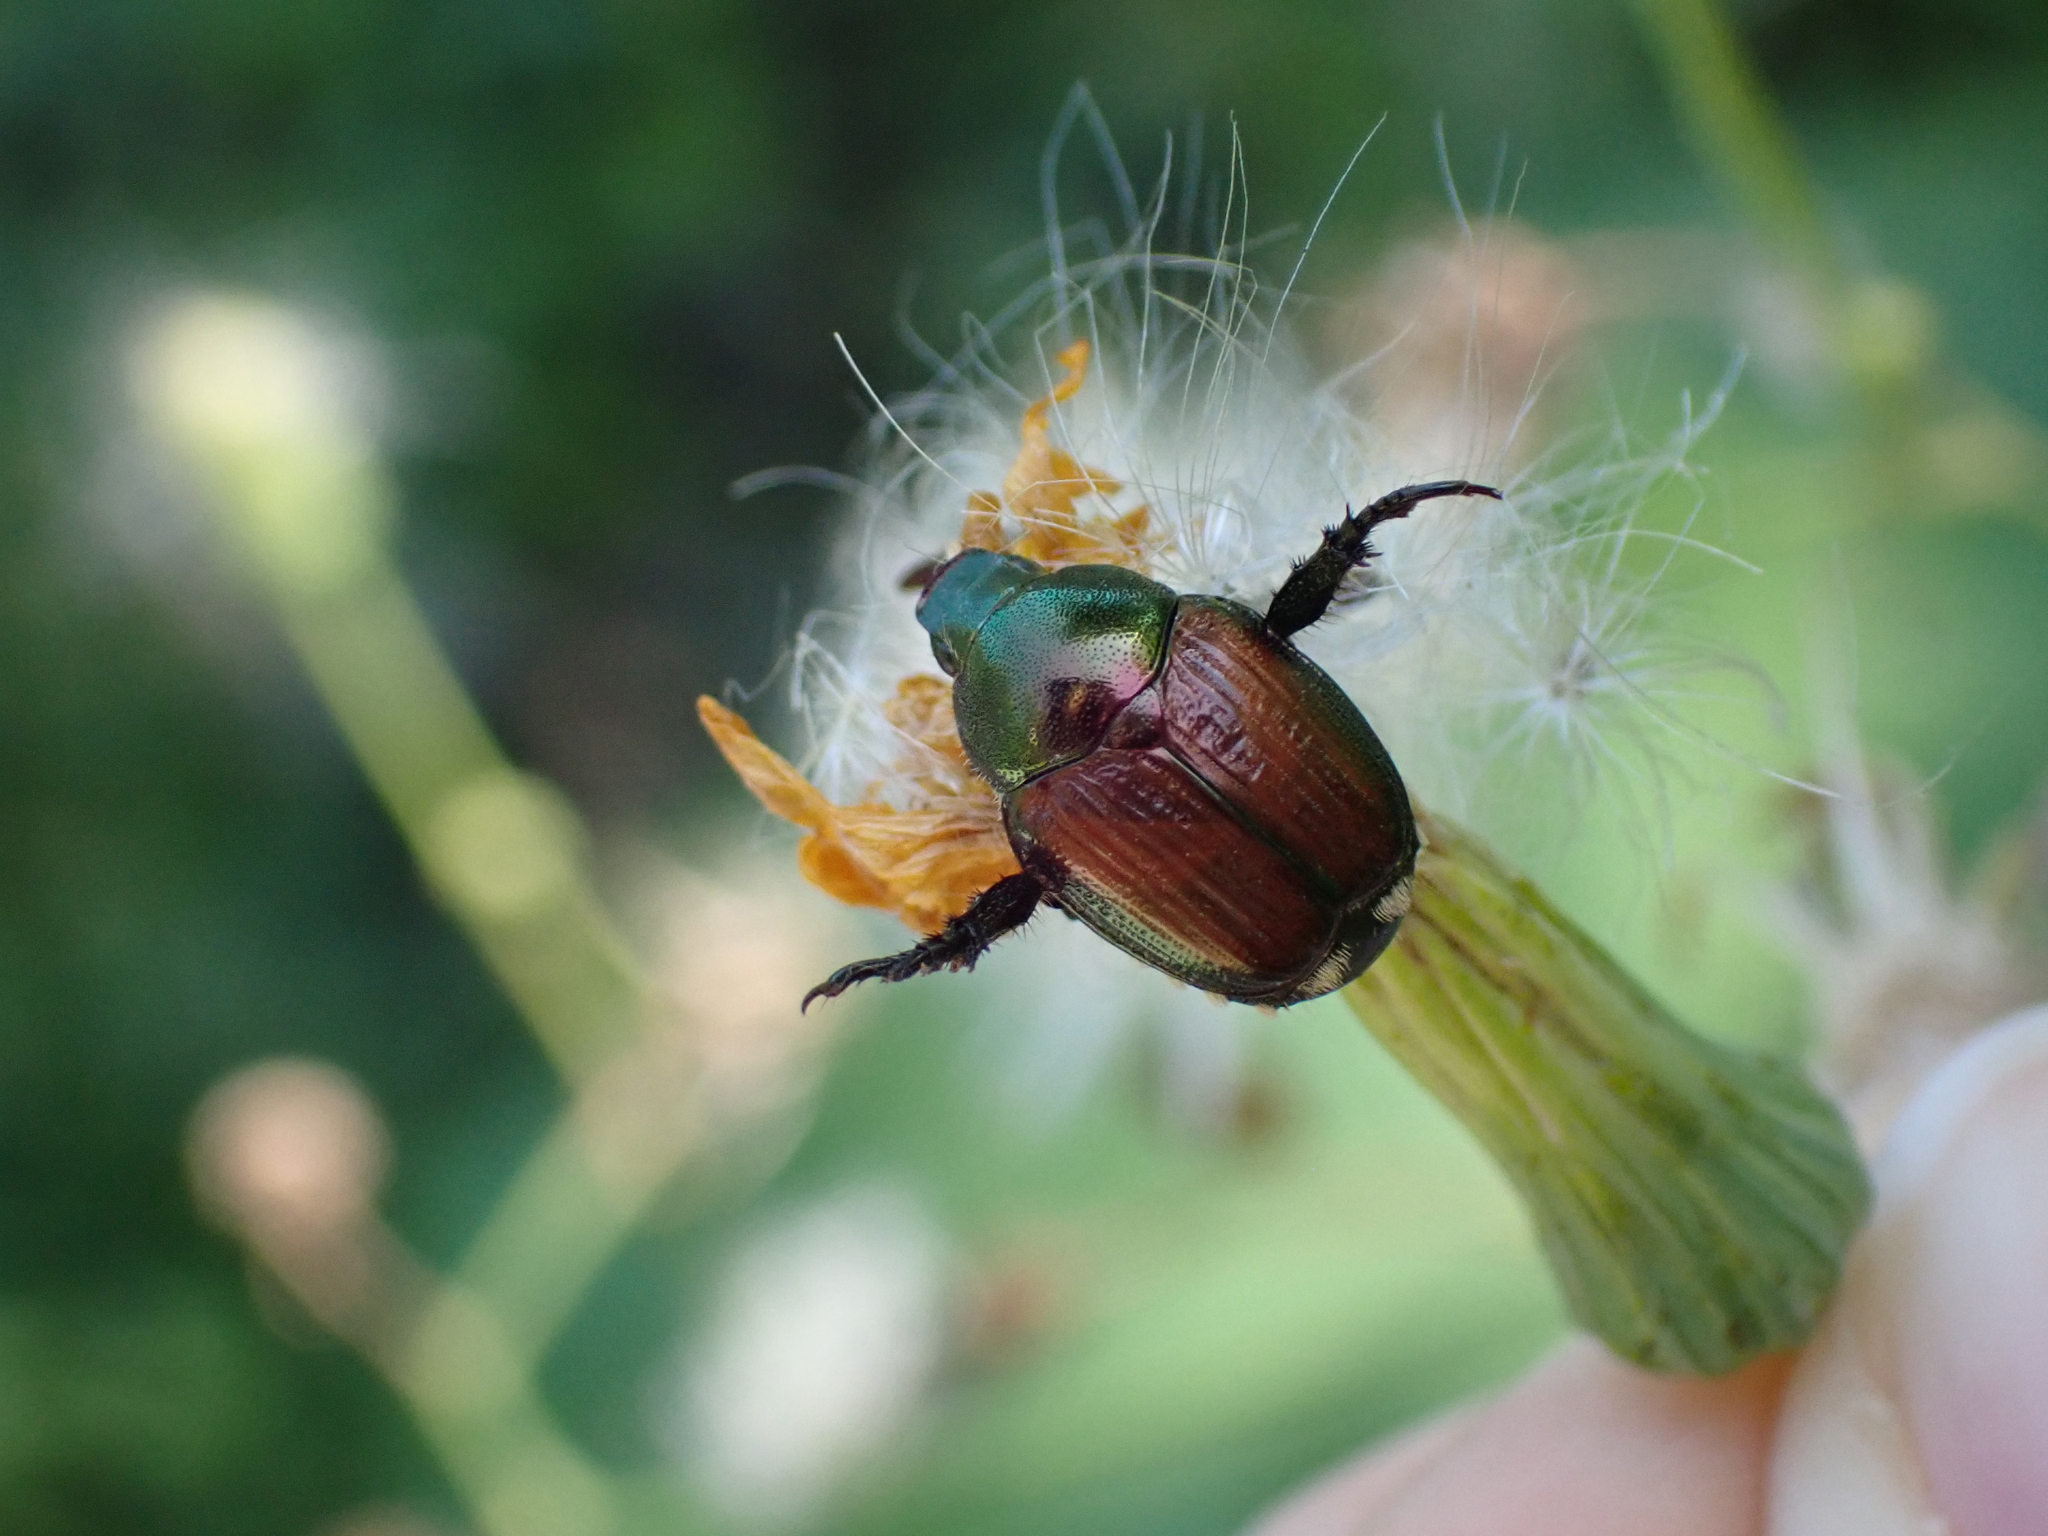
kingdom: Animalia
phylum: Arthropoda
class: Insecta
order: Coleoptera
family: Scarabaeidae
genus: Popillia
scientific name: Popillia japonica
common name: Japanese beetle
